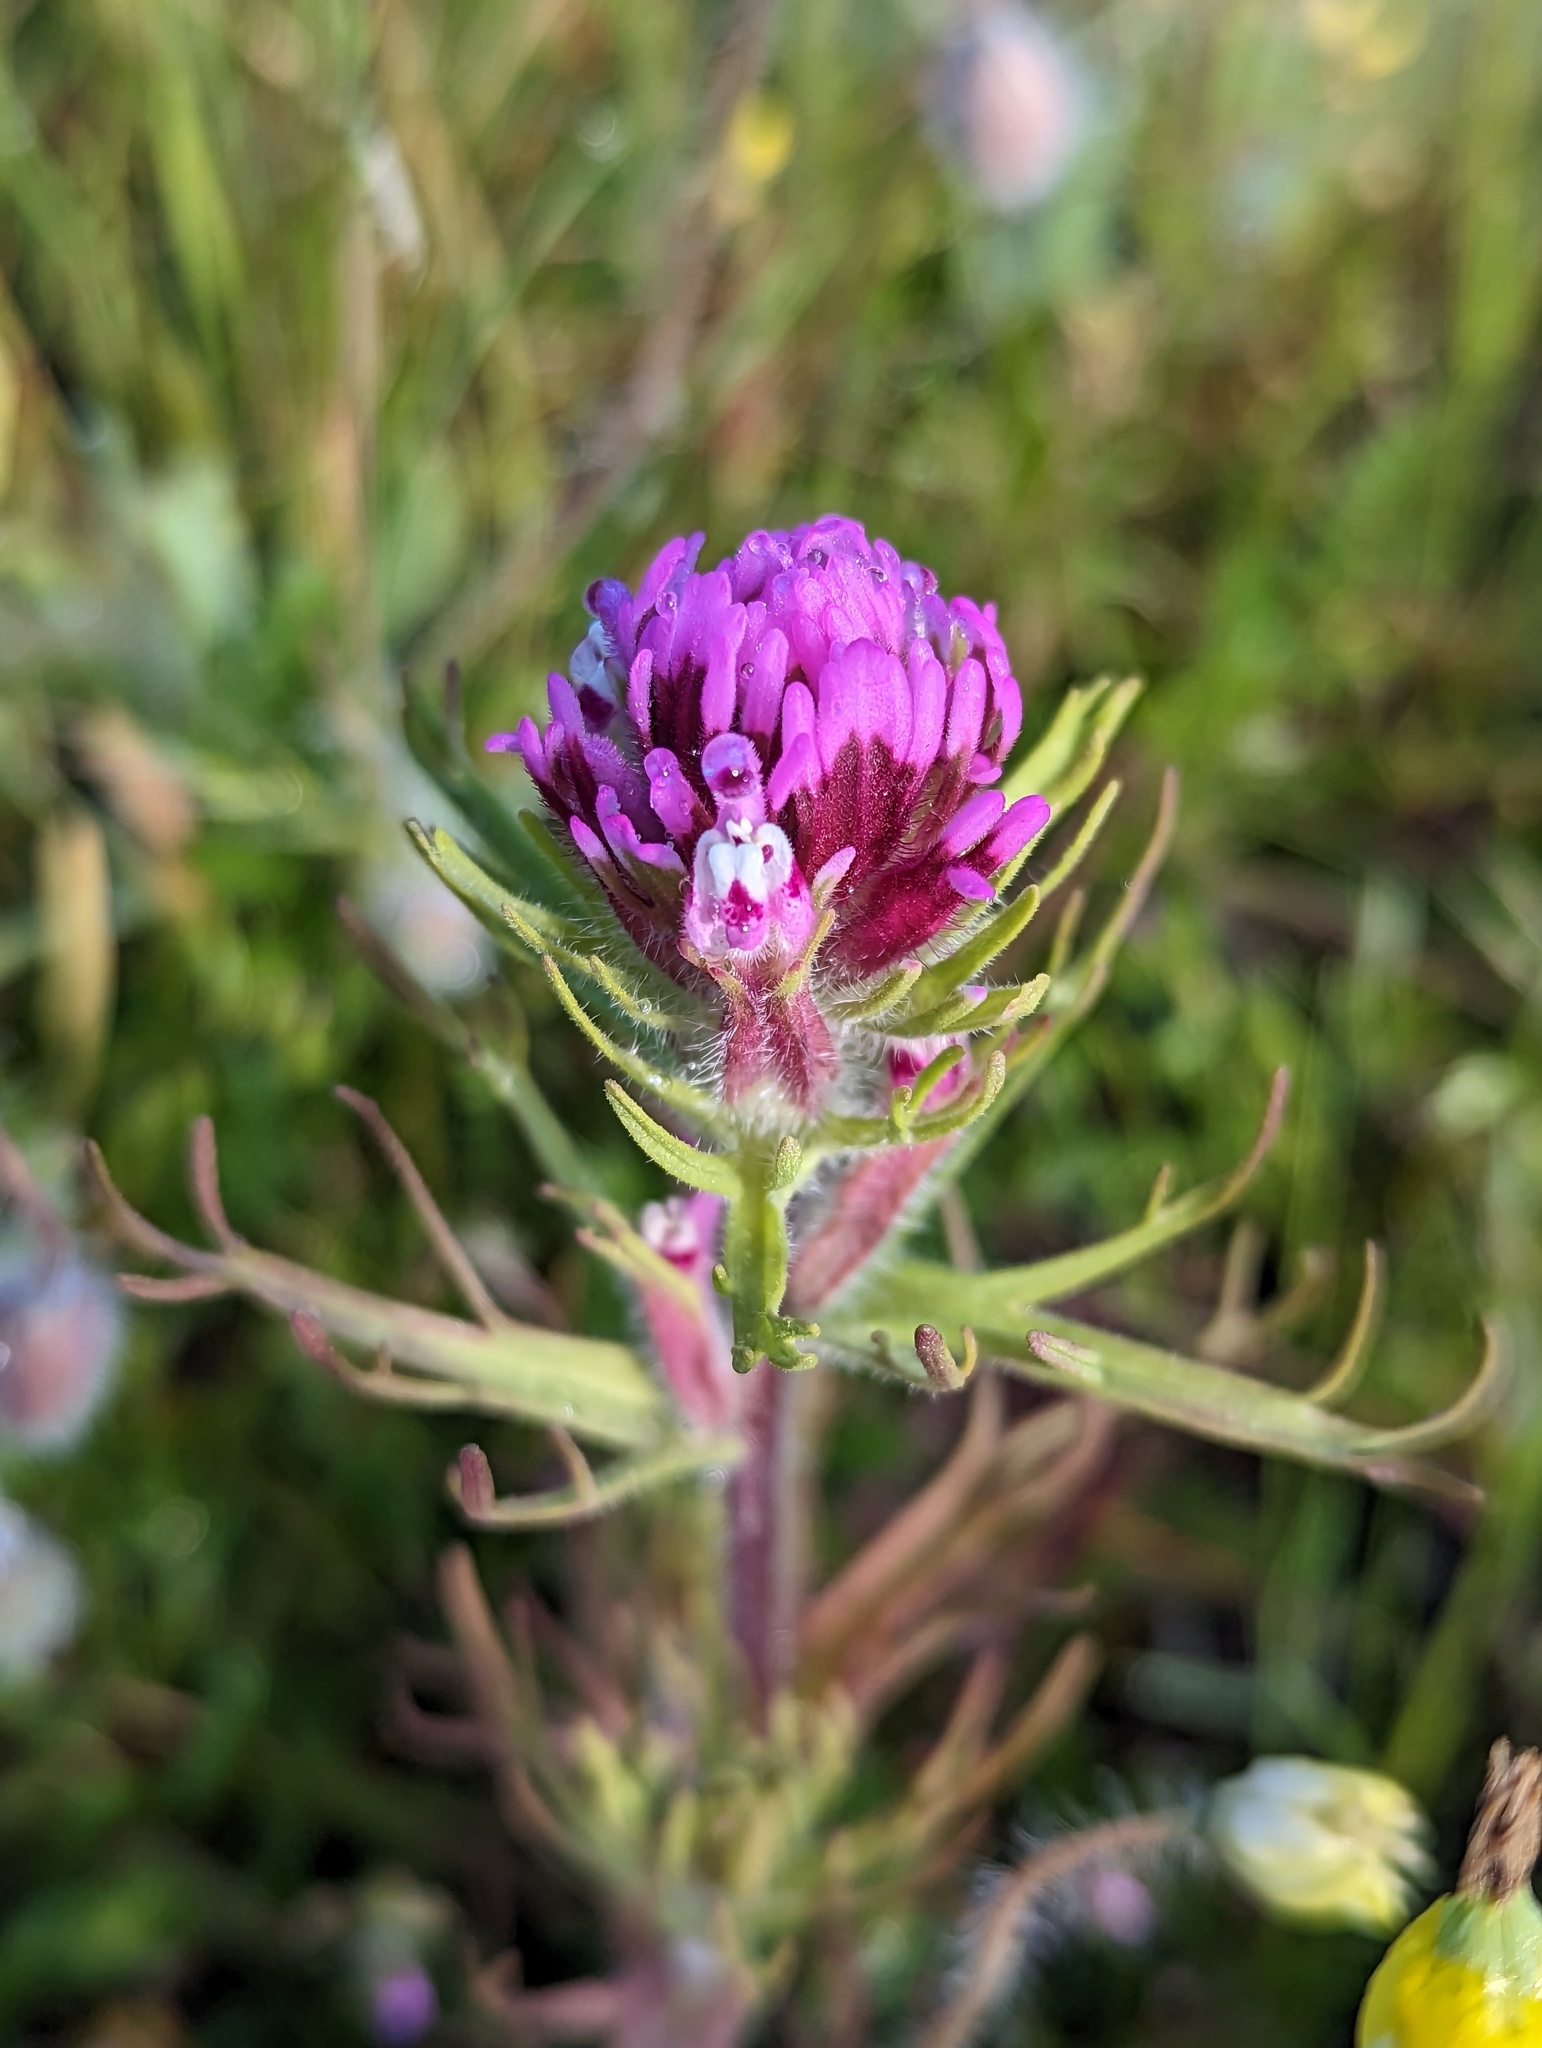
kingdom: Plantae
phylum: Tracheophyta
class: Magnoliopsida
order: Lamiales
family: Orobanchaceae
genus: Castilleja
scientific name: Castilleja exserta
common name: Purple owl-clover
